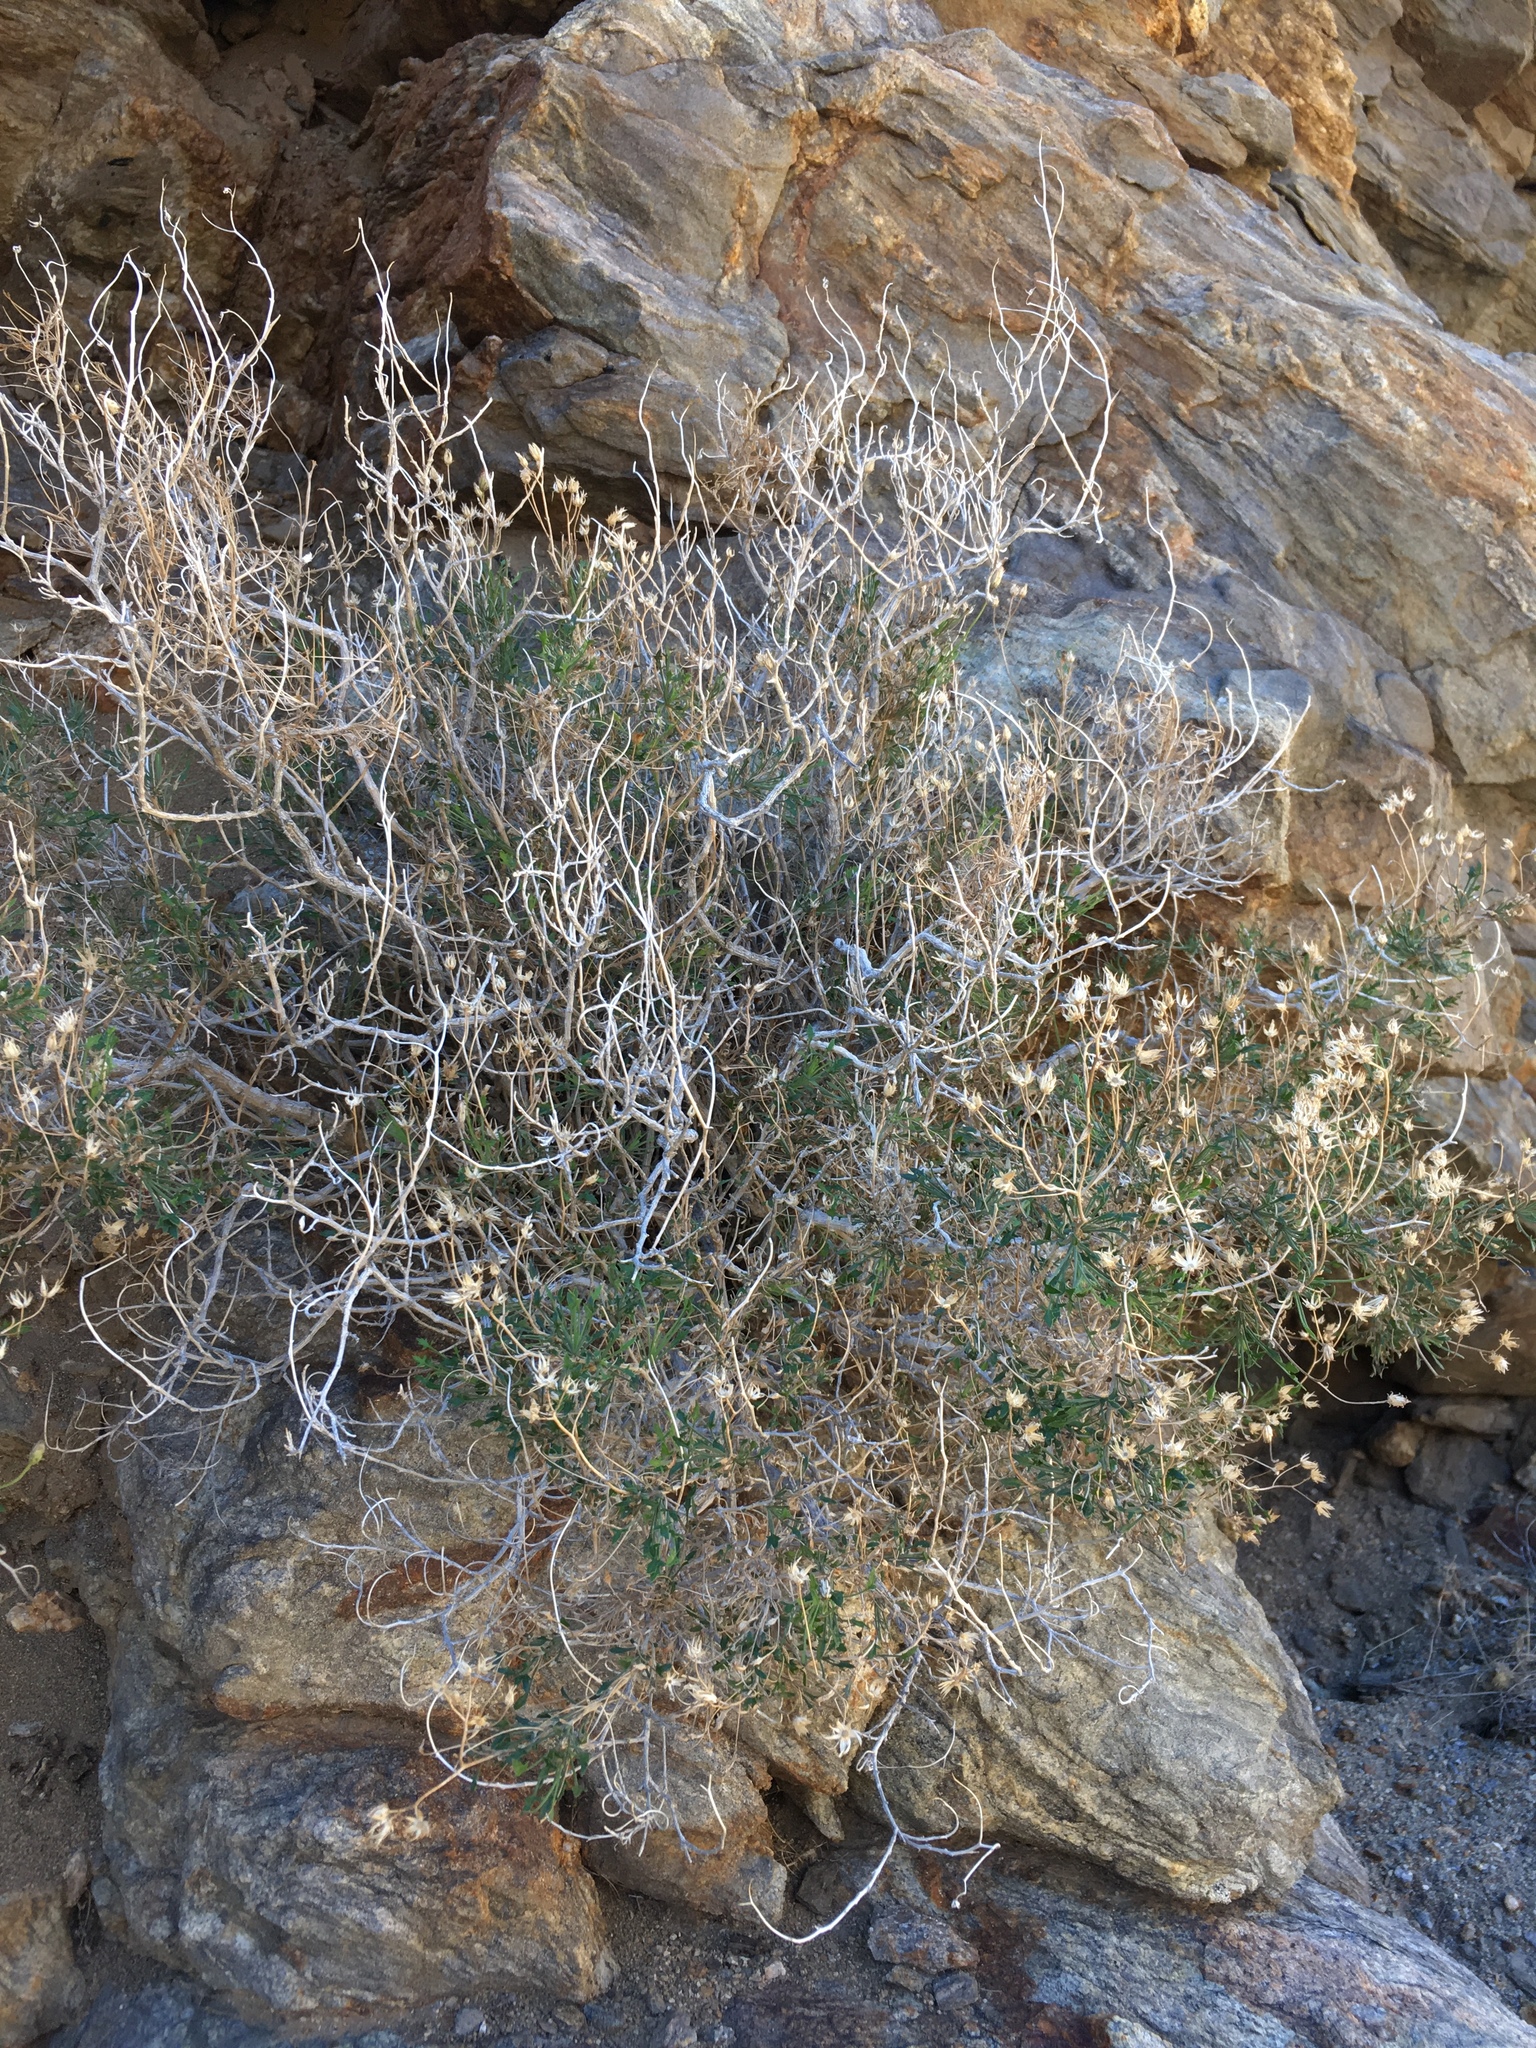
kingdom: Plantae
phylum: Tracheophyta
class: Magnoliopsida
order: Asterales
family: Asteraceae
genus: Pleurocoronis
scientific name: Pleurocoronis pluriseta
